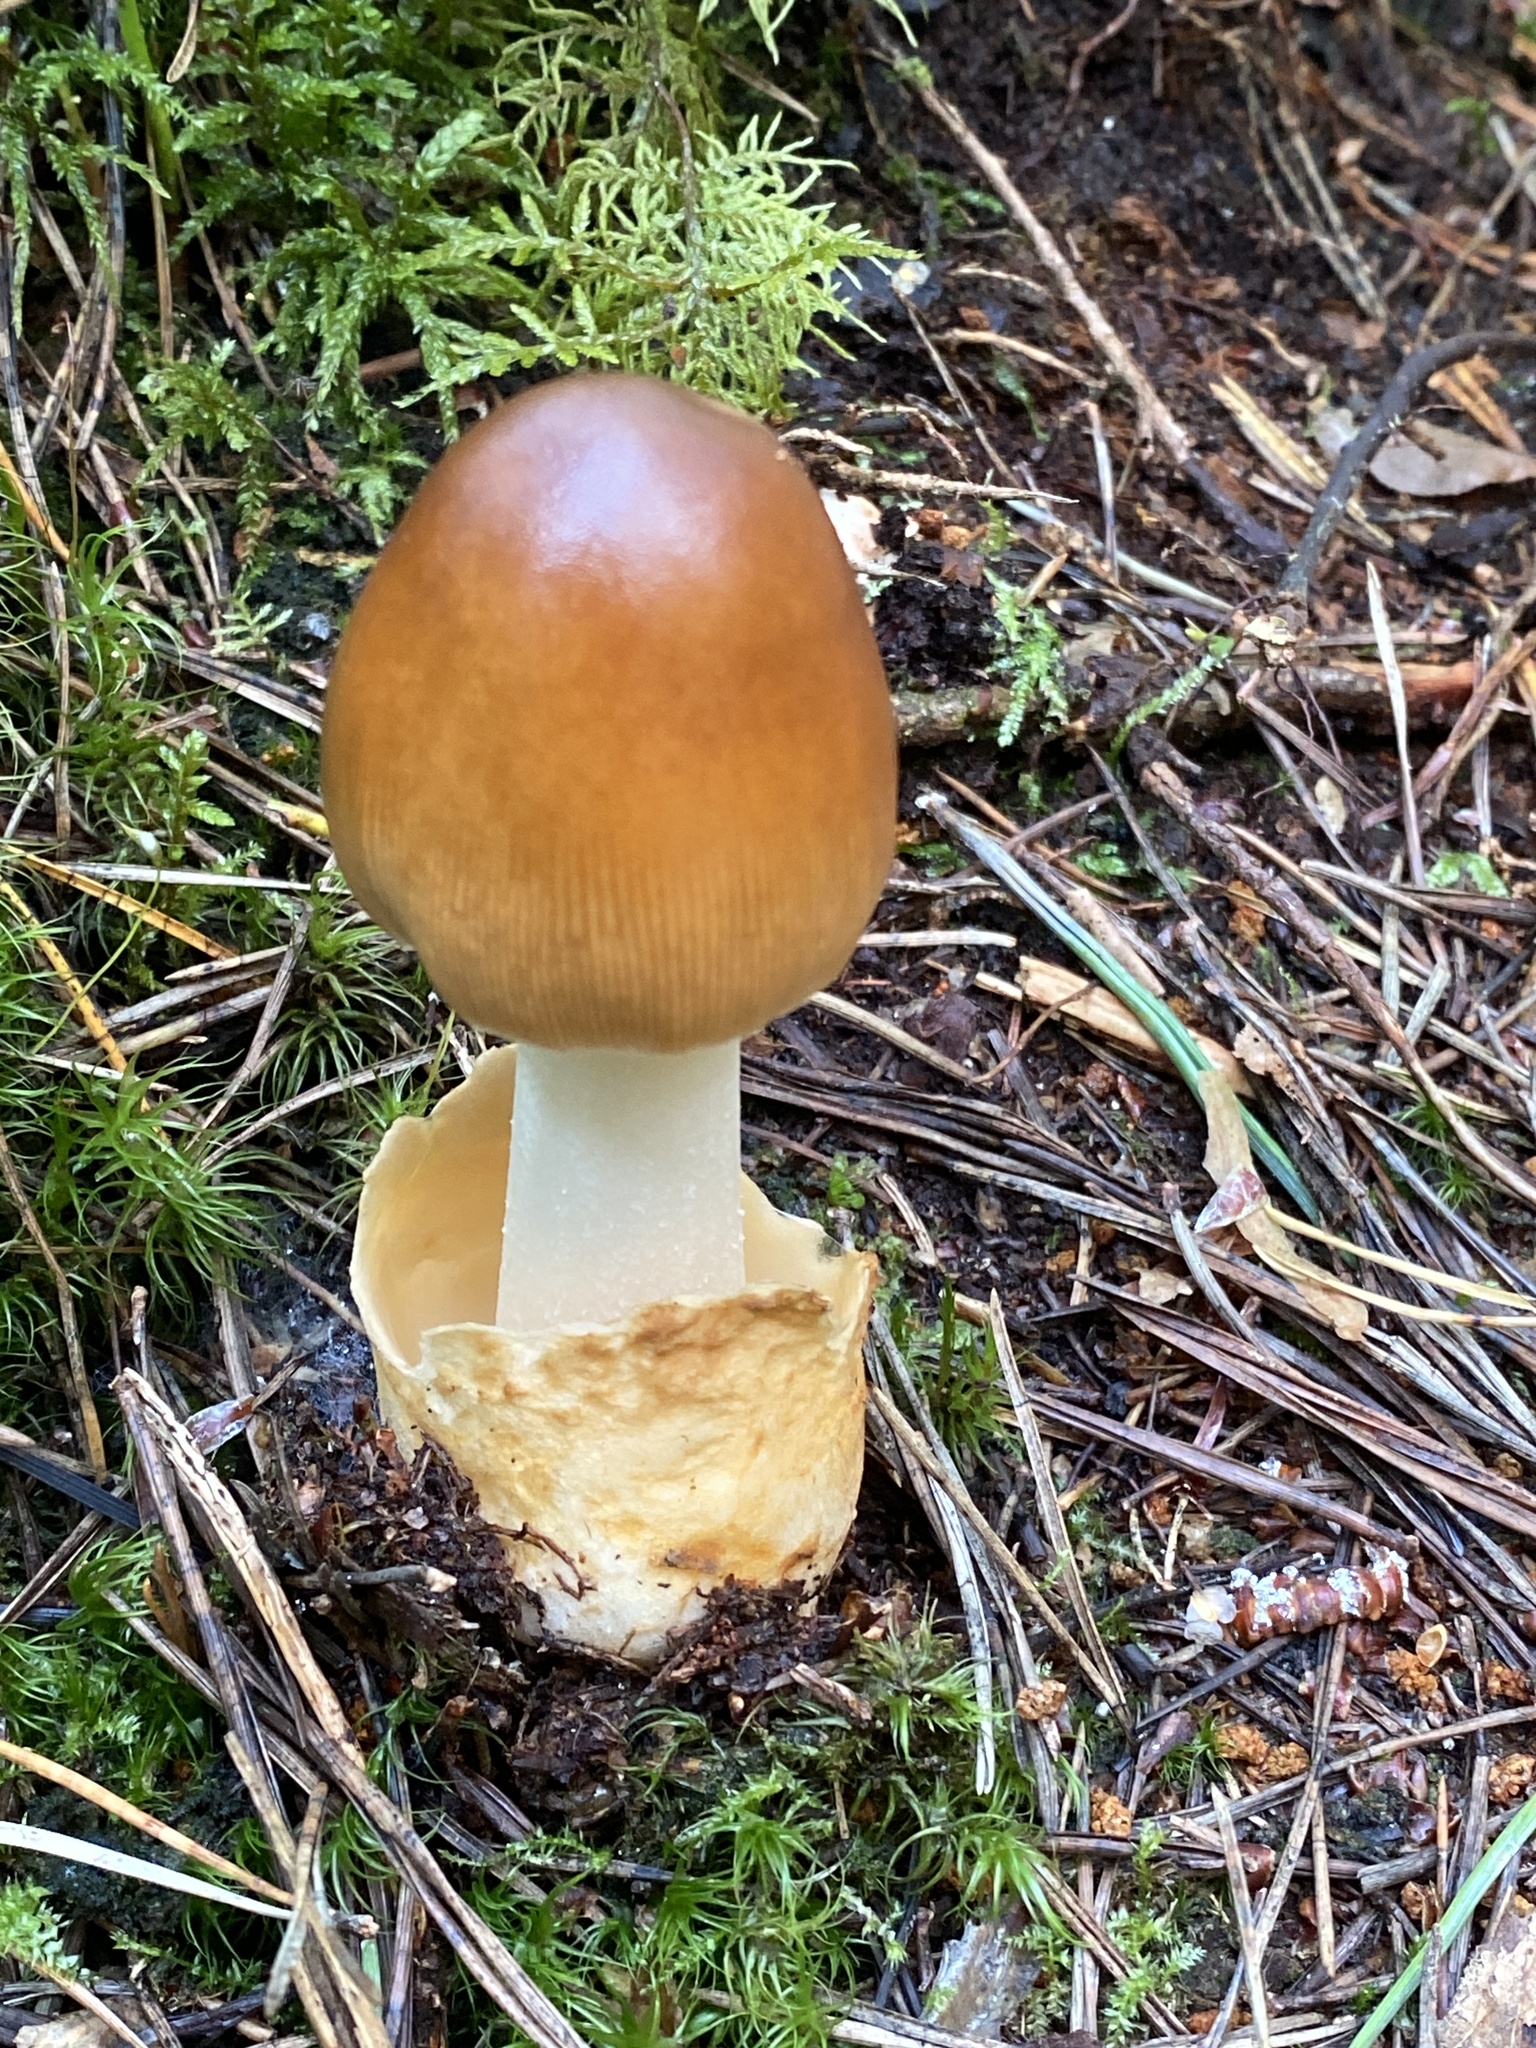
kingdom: Fungi
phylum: Basidiomycota
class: Agaricomycetes
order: Agaricales
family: Amanitaceae
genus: Amanita
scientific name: Amanita fulva
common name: Tawny grisette
